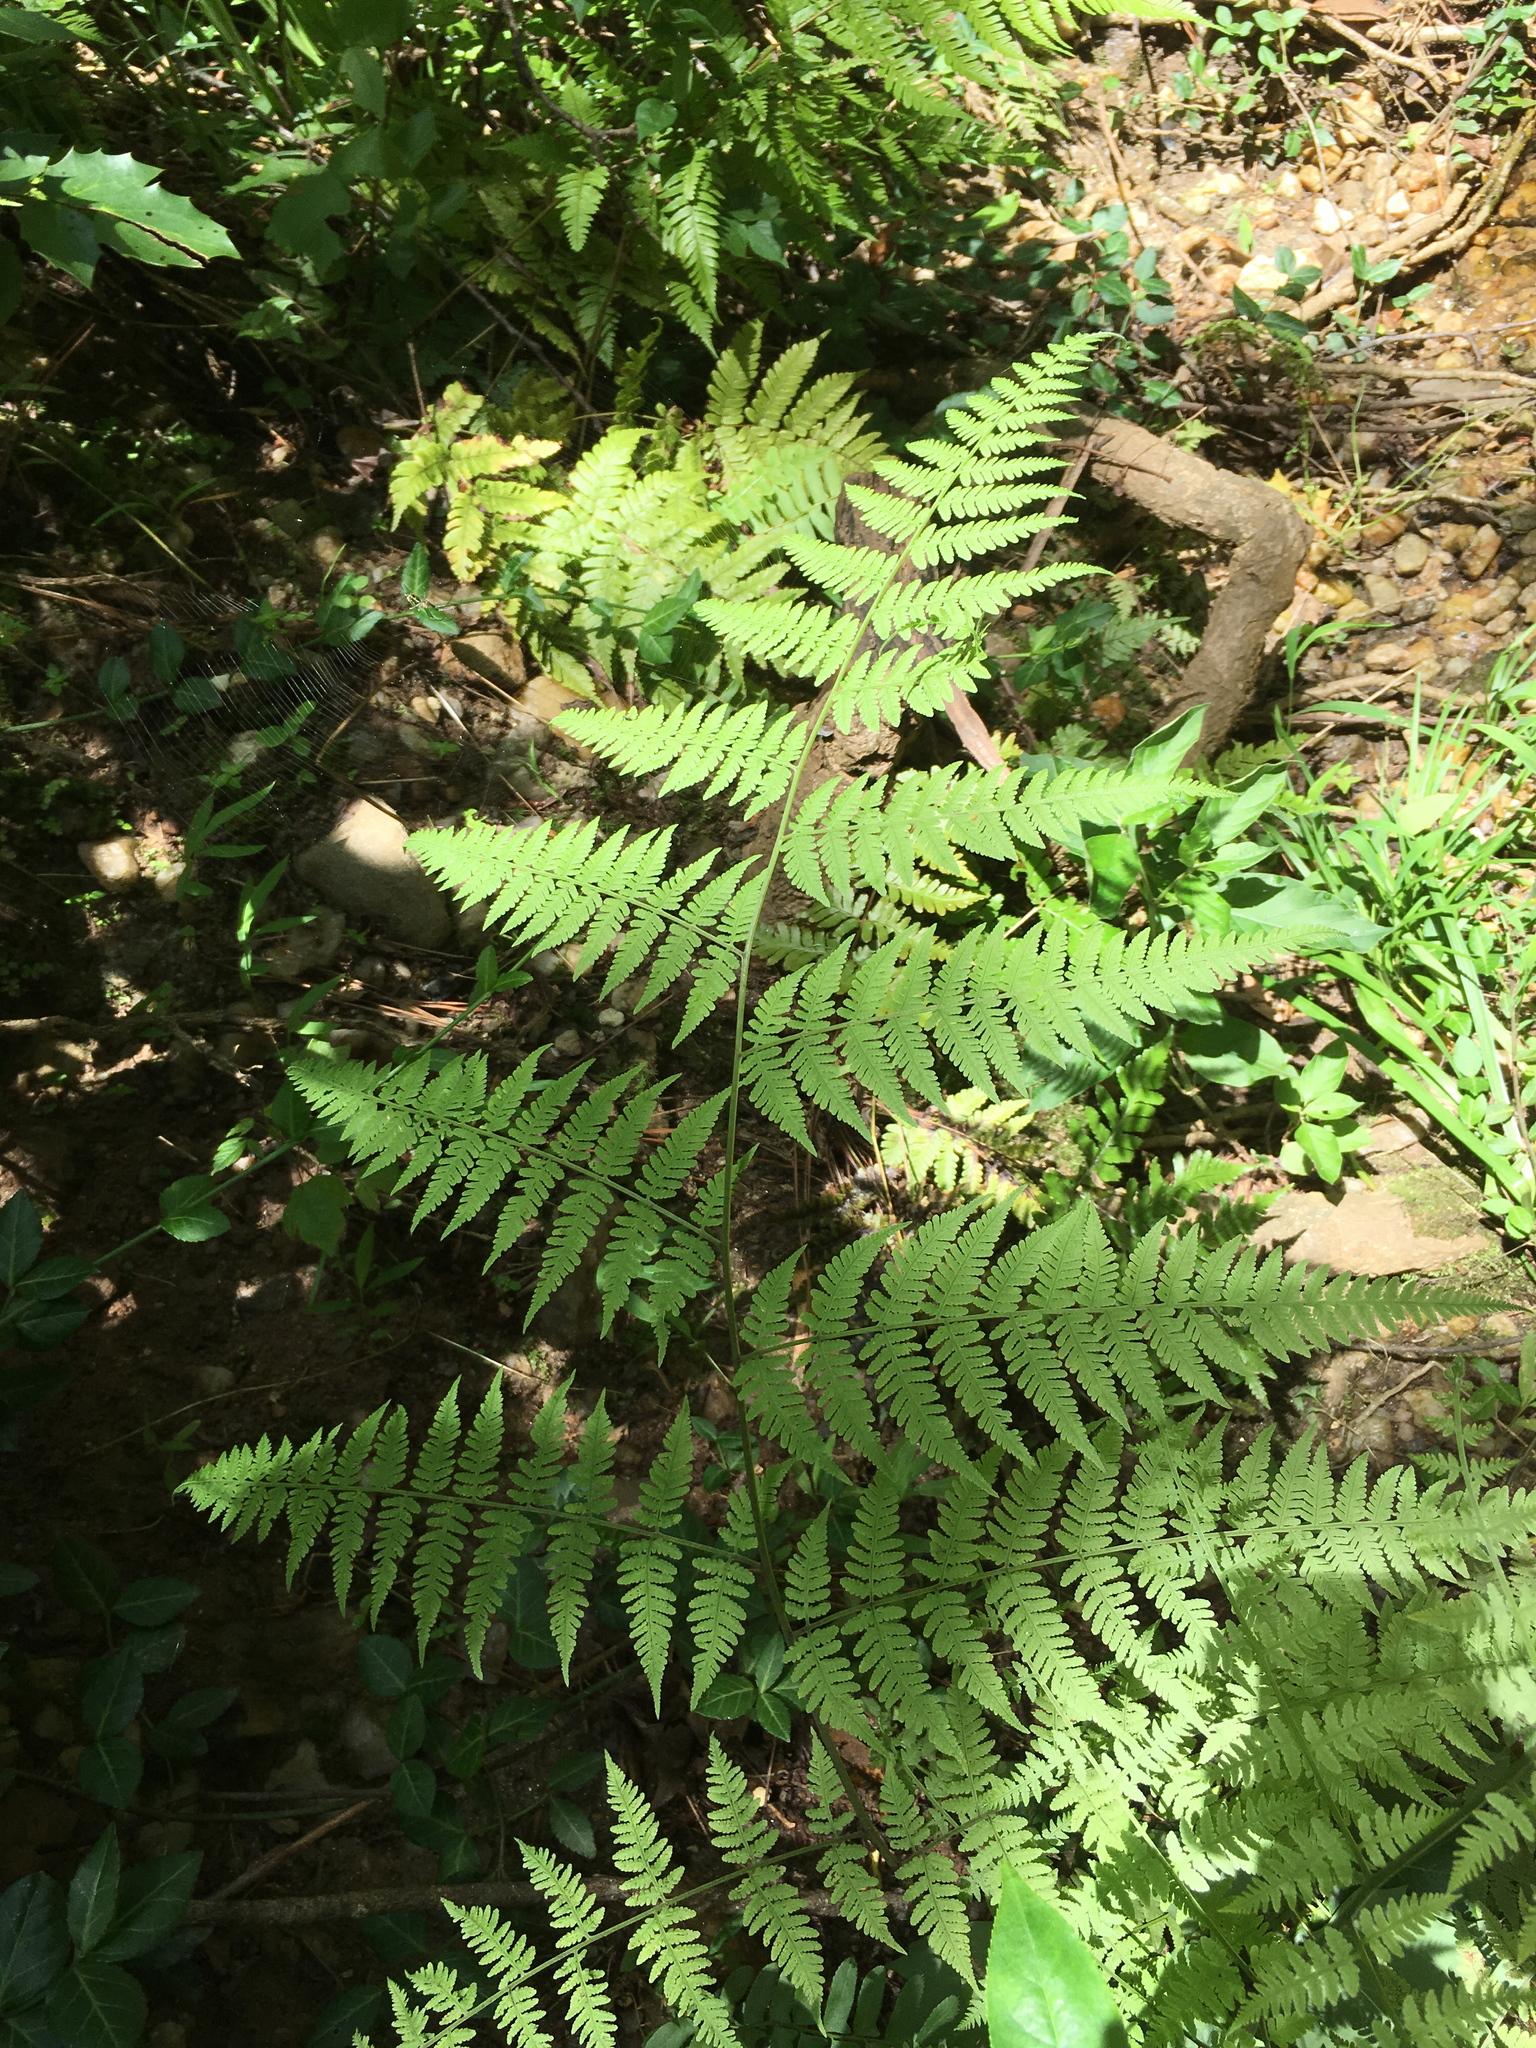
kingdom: Plantae
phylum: Tracheophyta
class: Polypodiopsida
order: Polypodiales
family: Thelypteridaceae
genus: Macrothelypteris
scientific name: Macrothelypteris torresiana
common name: Swordfern
